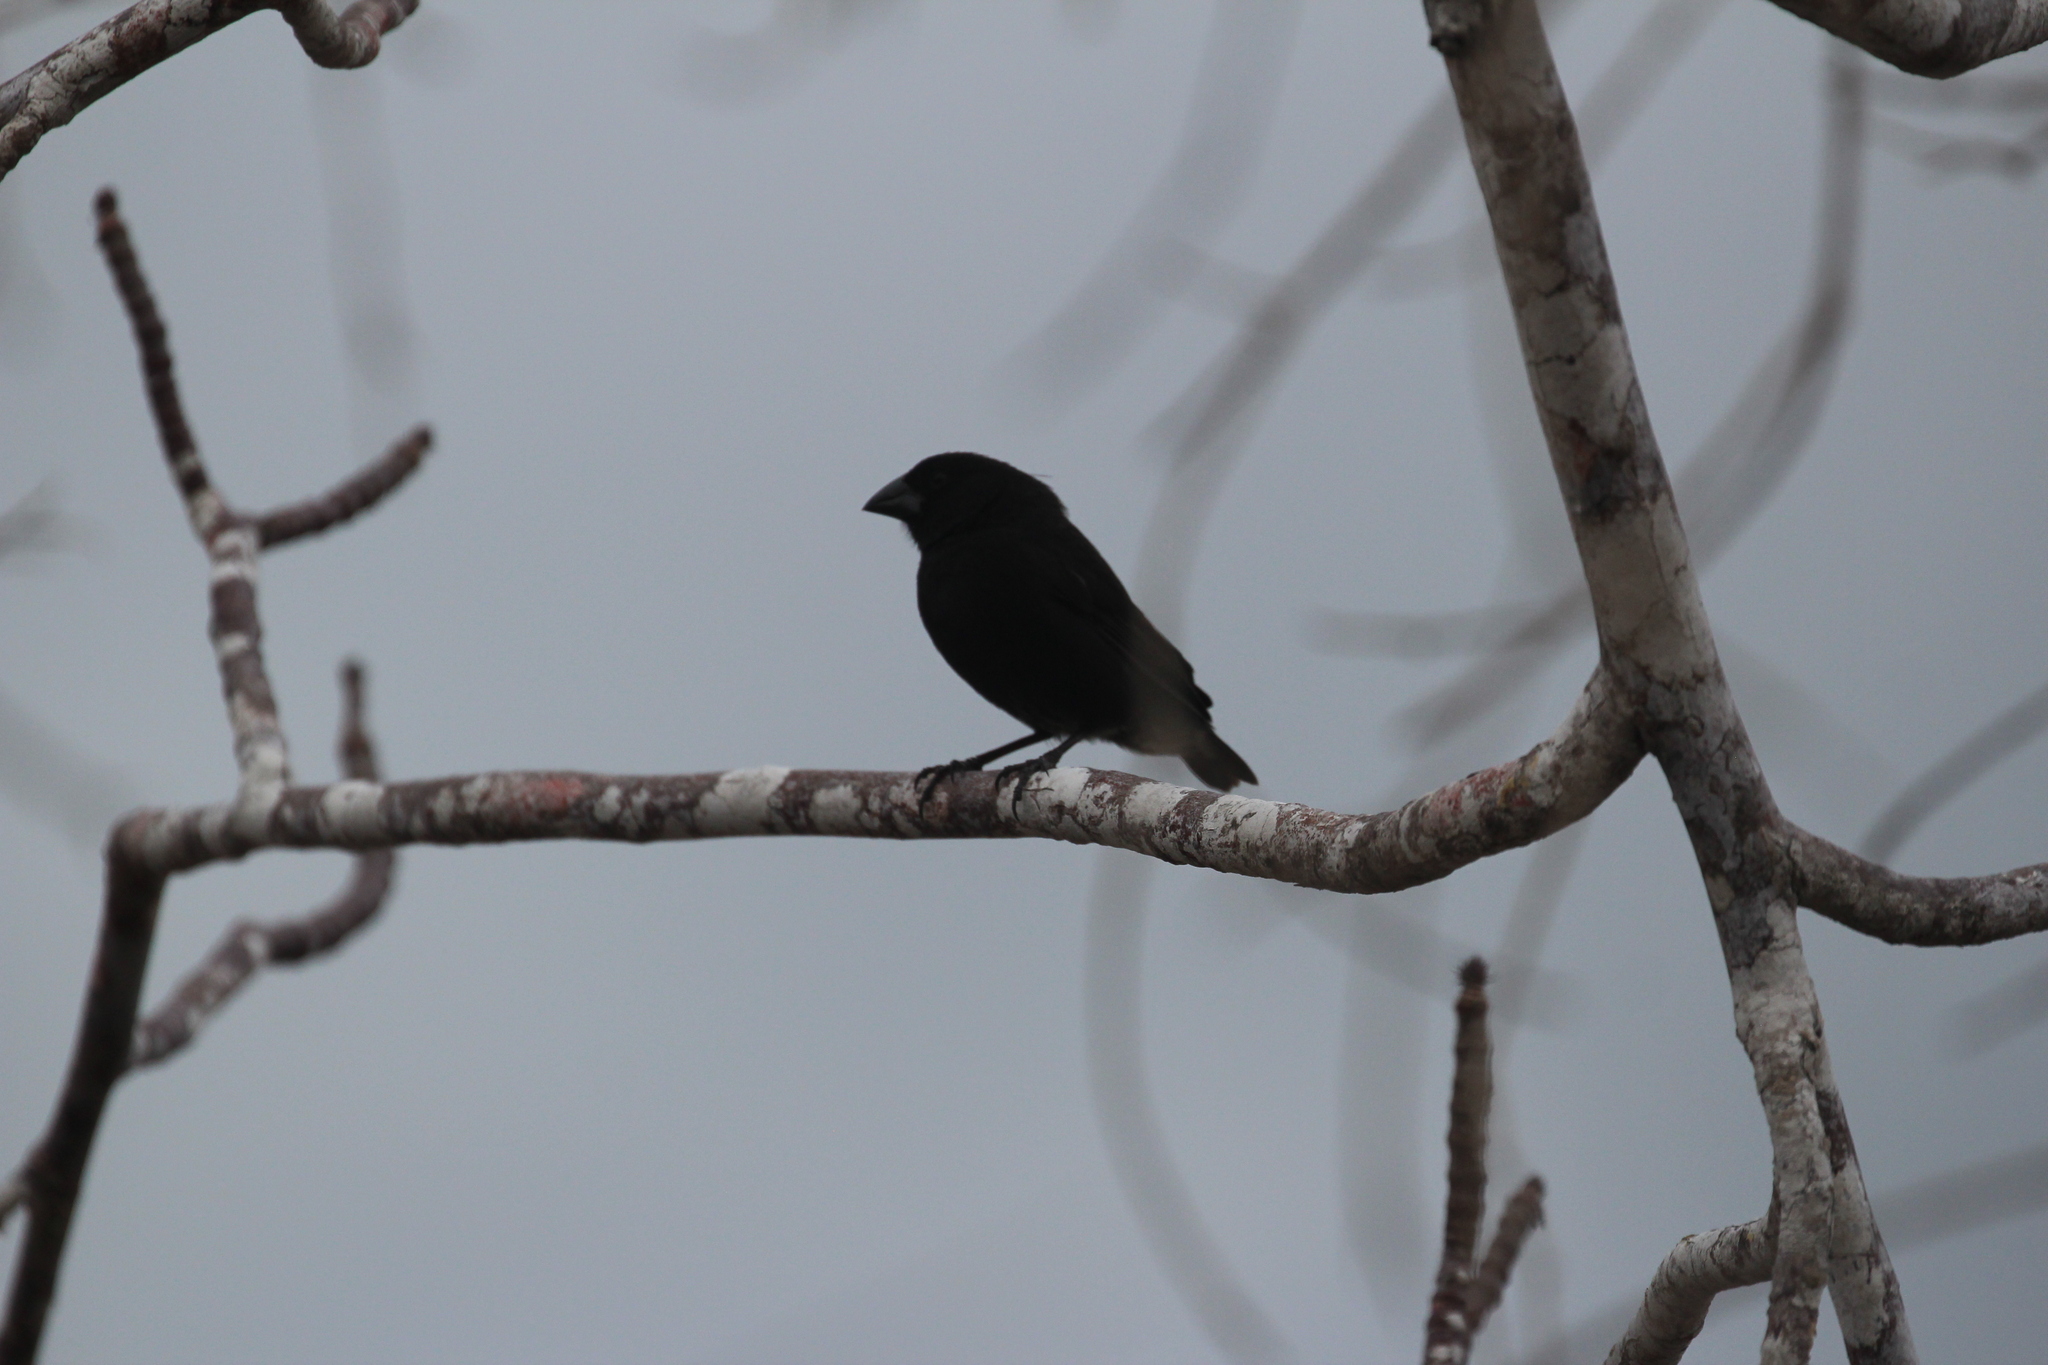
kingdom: Animalia
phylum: Chordata
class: Aves
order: Passeriformes
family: Thraupidae
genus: Geospiza
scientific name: Geospiza fortis
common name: Medium ground finch
